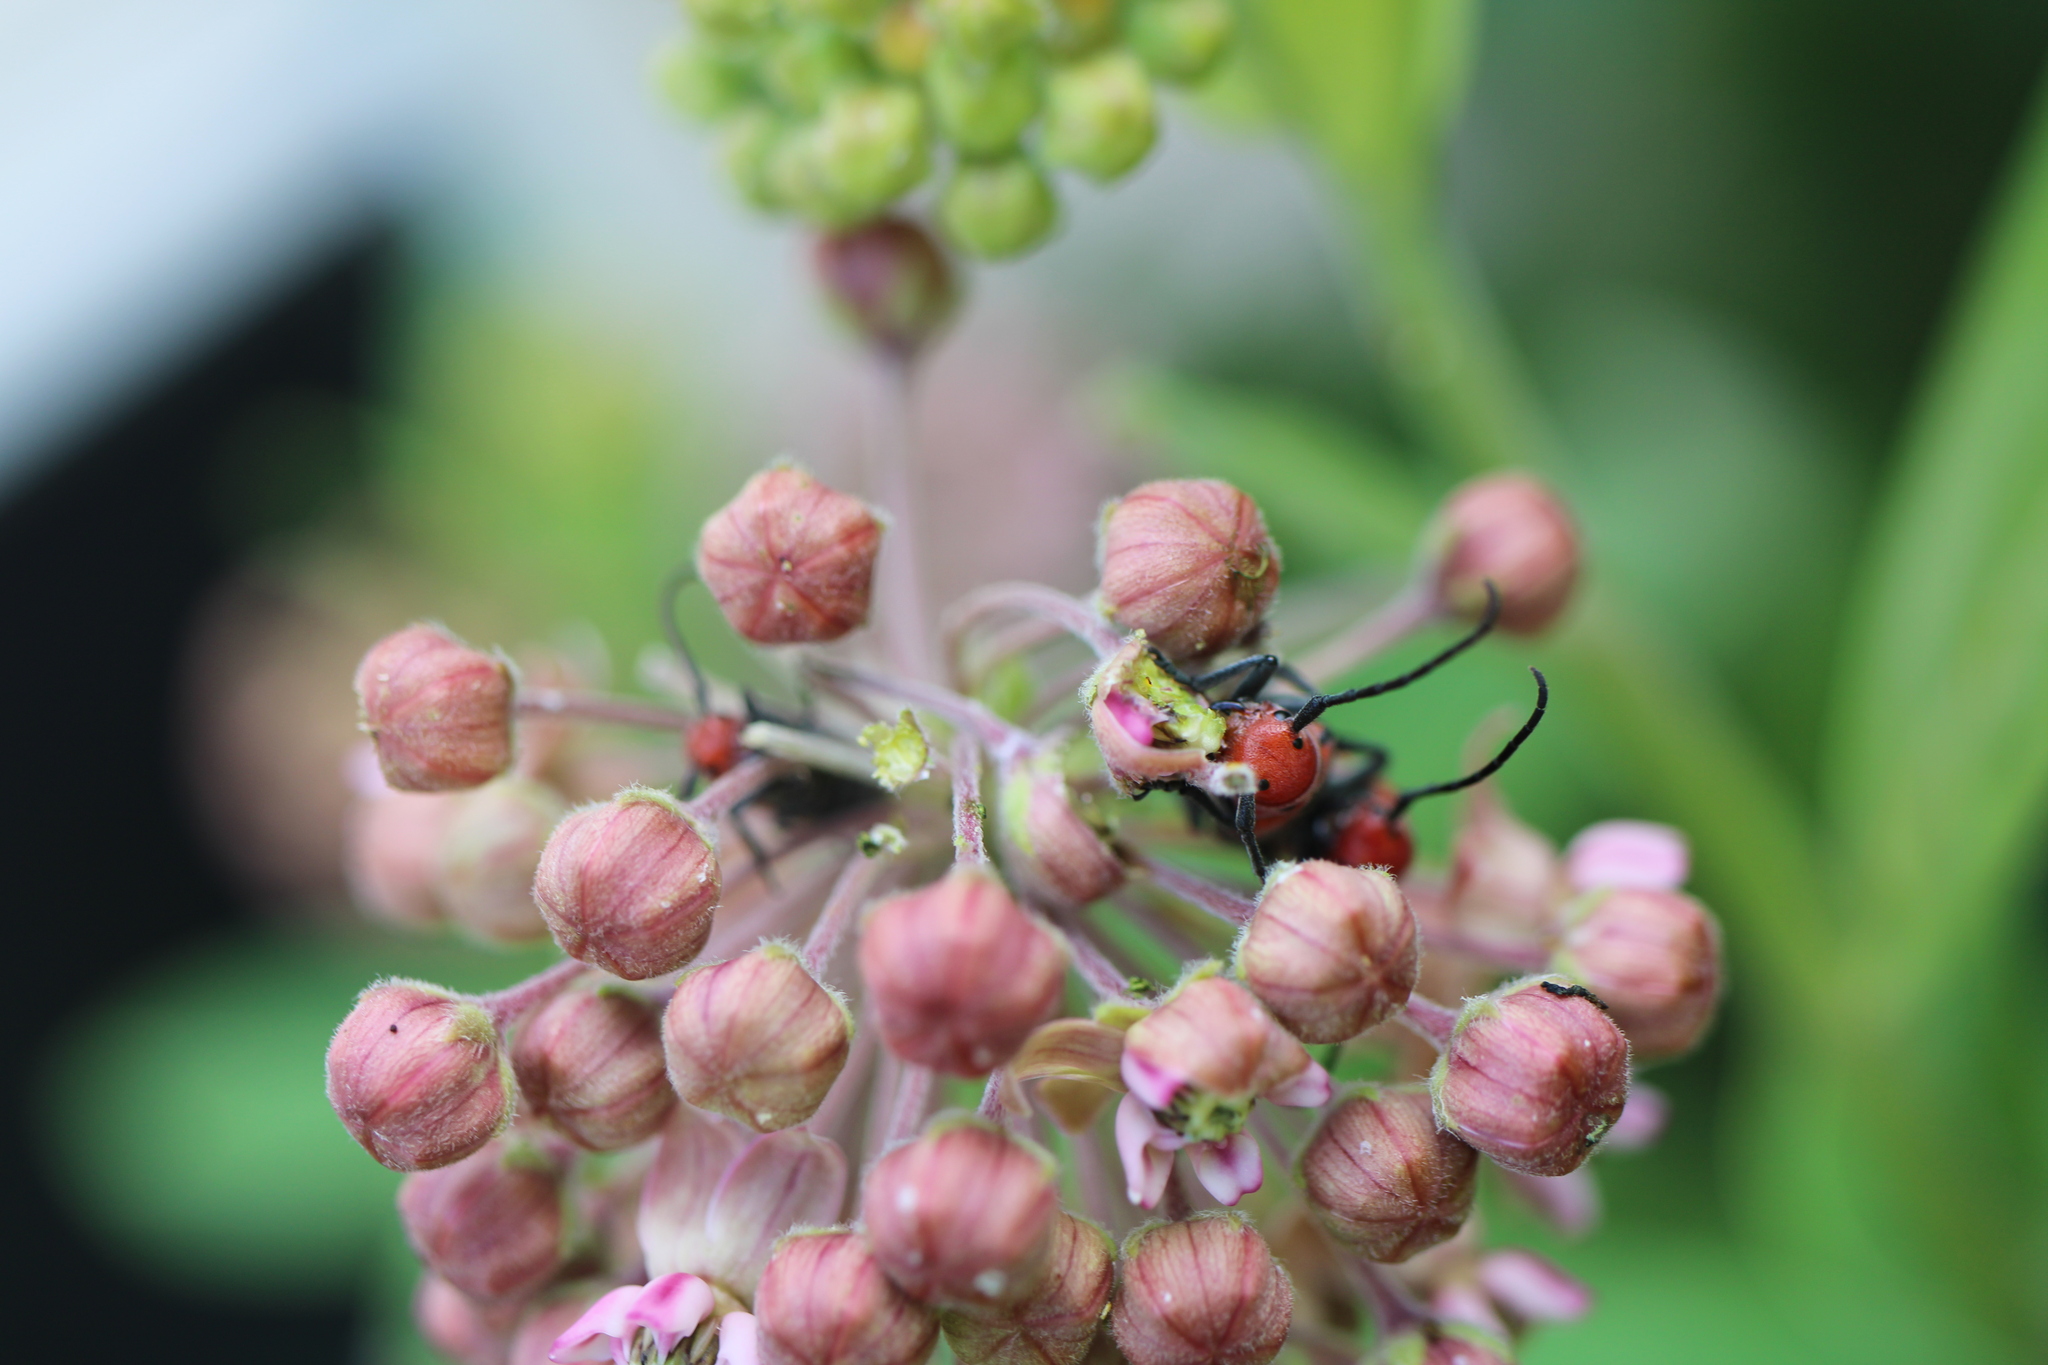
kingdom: Animalia
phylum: Arthropoda
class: Insecta
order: Coleoptera
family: Cerambycidae
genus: Tetraopes
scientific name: Tetraopes tetrophthalmus
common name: Red milkweed beetle
